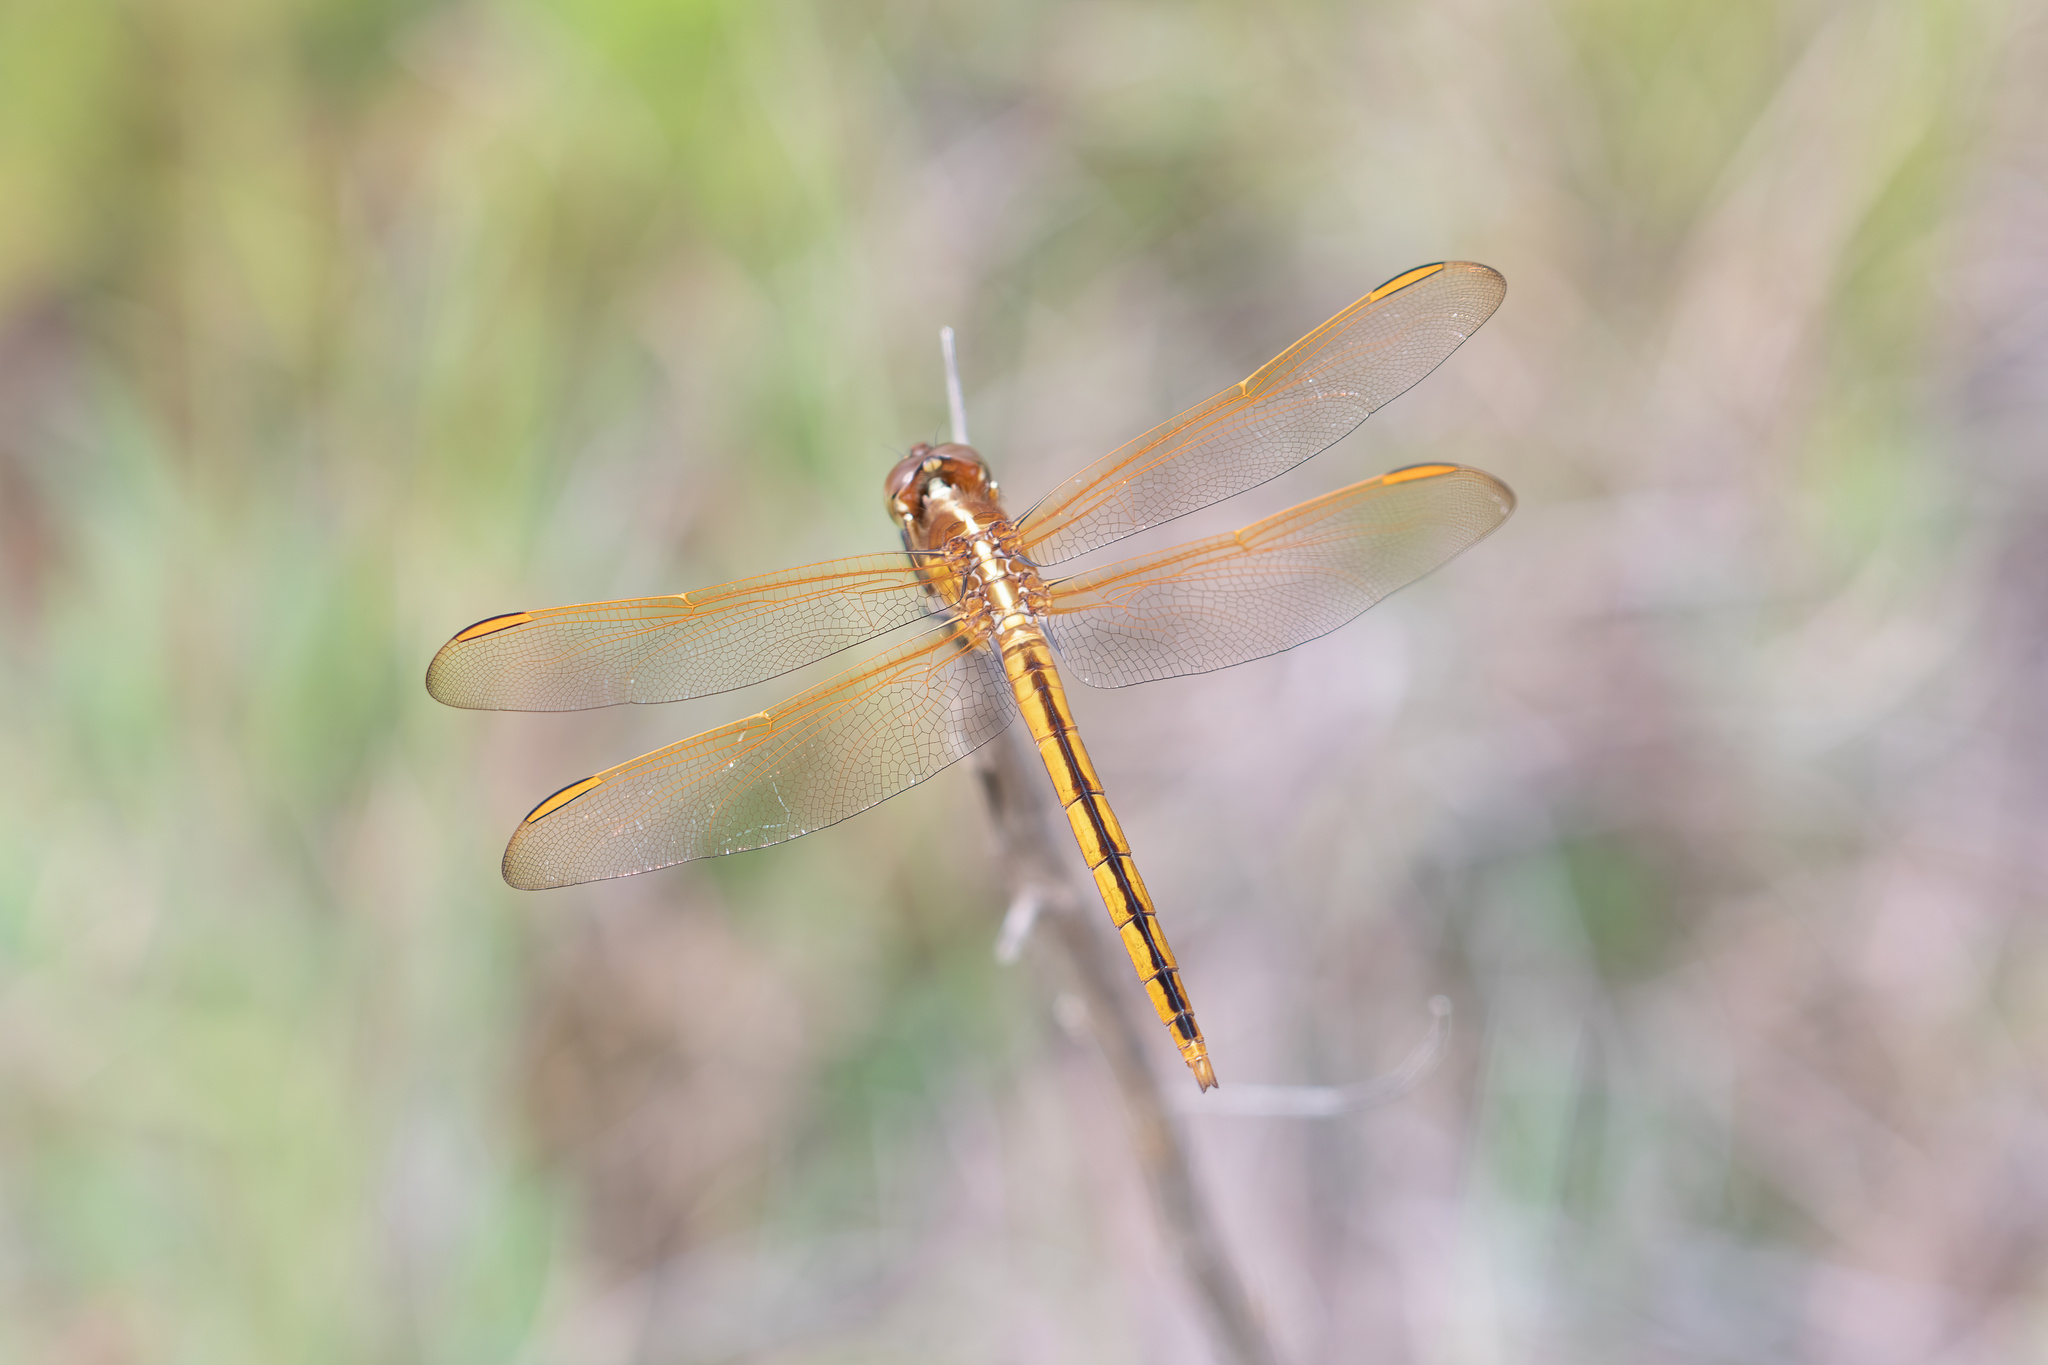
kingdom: Animalia
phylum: Arthropoda
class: Insecta
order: Odonata
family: Libellulidae
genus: Libellula
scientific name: Libellula needhami
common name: Needham's skimmer
